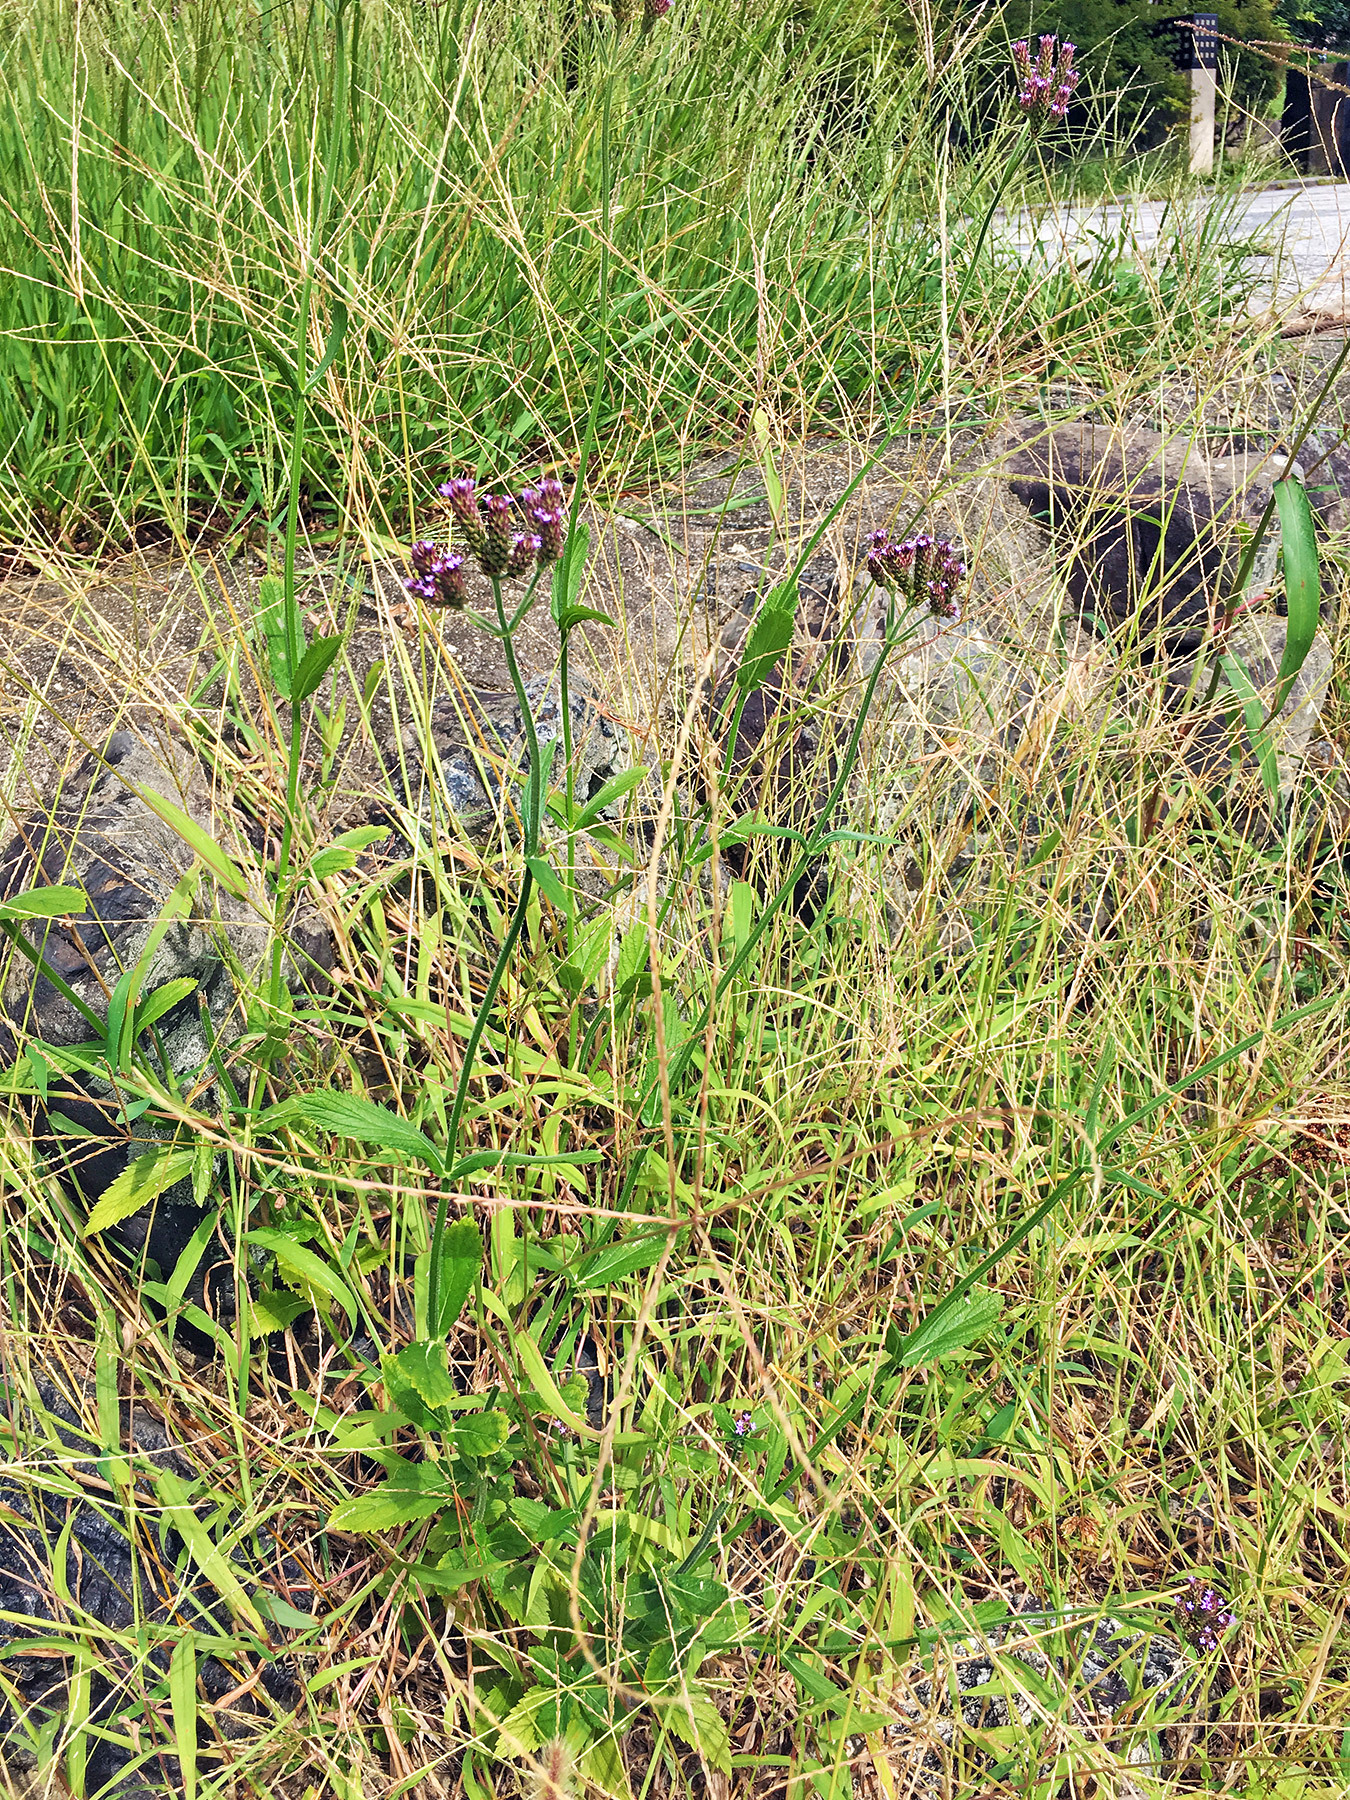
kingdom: Plantae
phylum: Tracheophyta
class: Magnoliopsida
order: Lamiales
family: Verbenaceae
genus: Verbena
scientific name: Verbena brasiliensis
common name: Brazilian vervain
